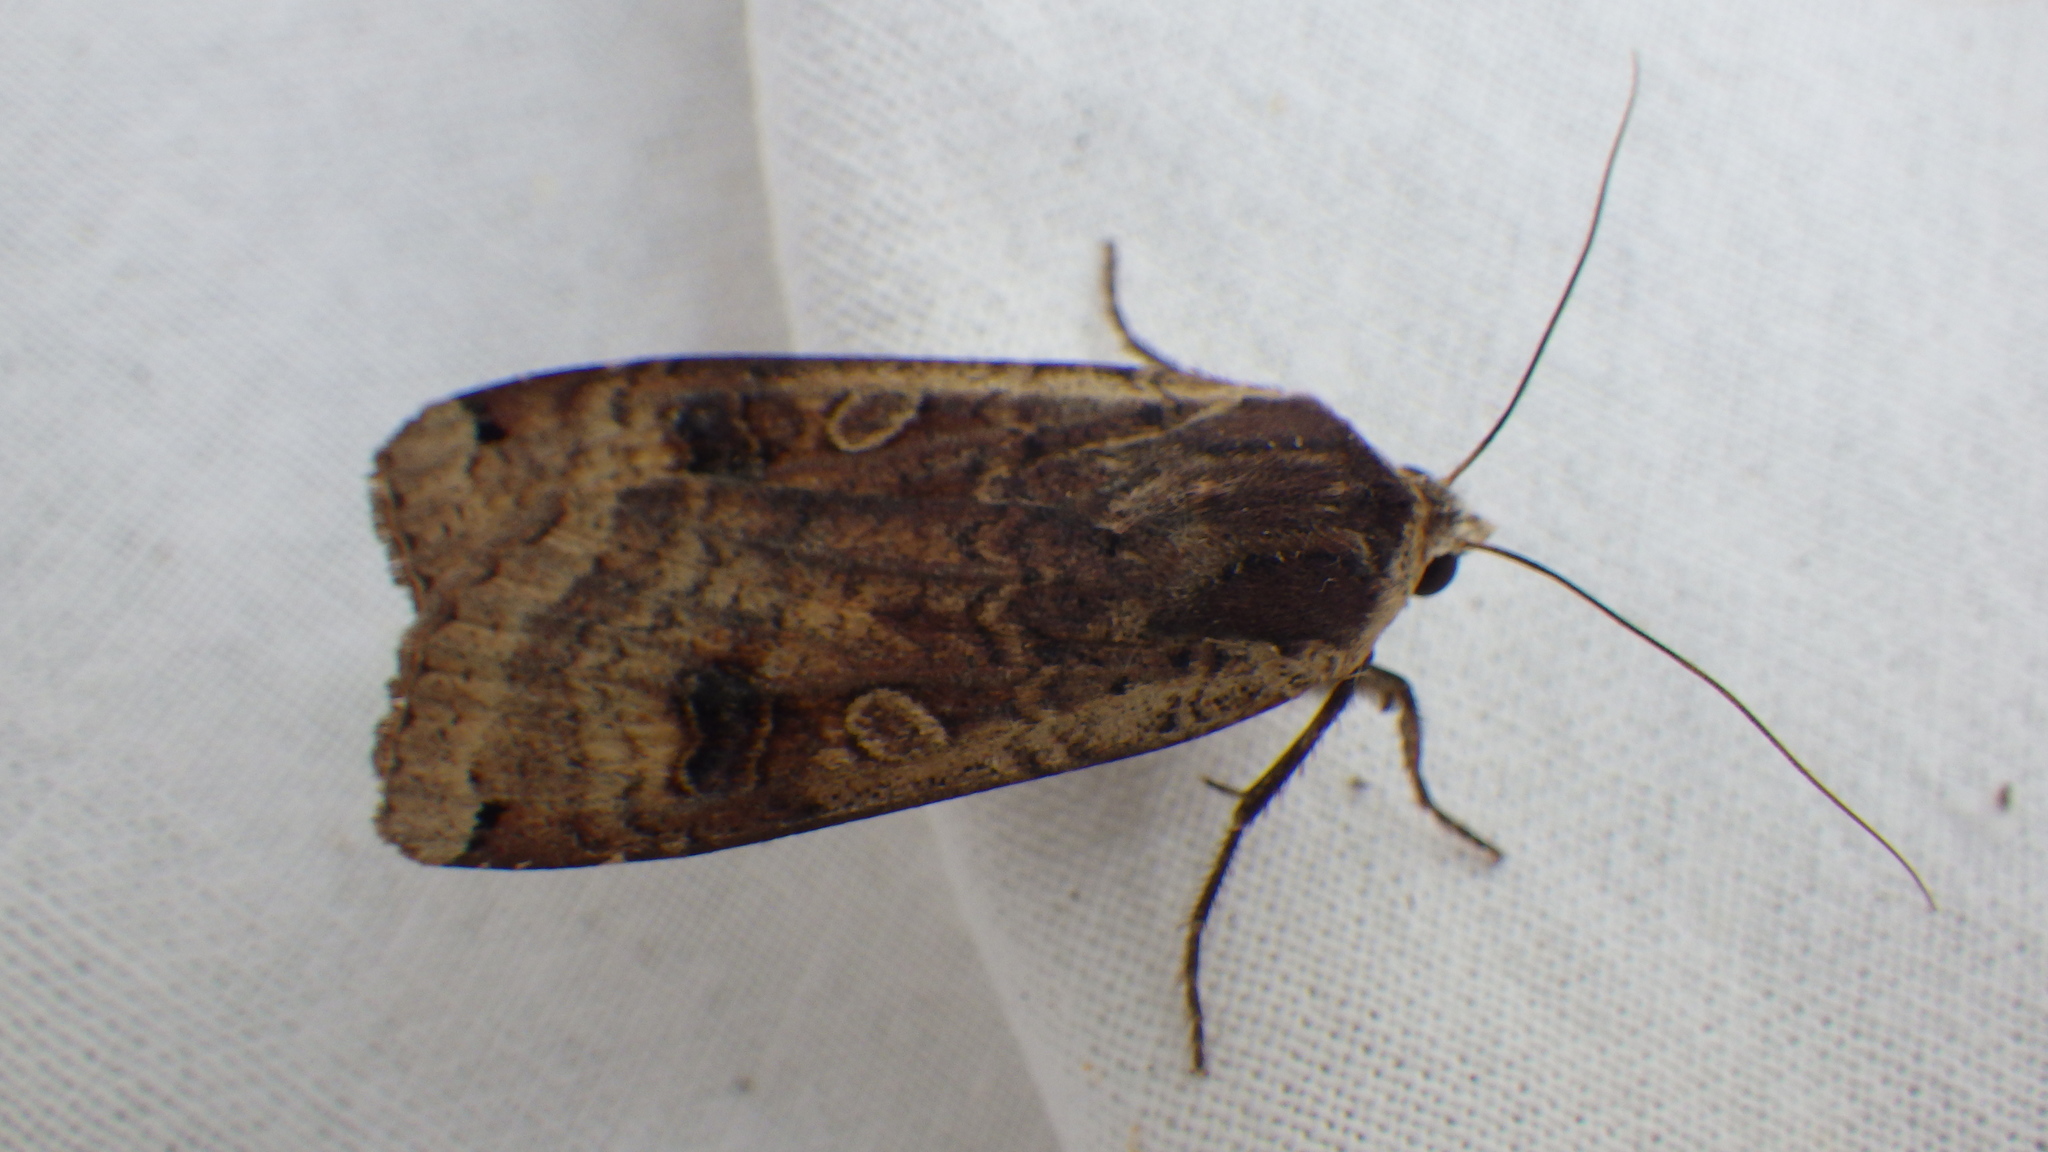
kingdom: Animalia
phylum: Arthropoda
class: Insecta
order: Lepidoptera
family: Noctuidae
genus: Noctua
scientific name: Noctua pronuba
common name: Large yellow underwing
